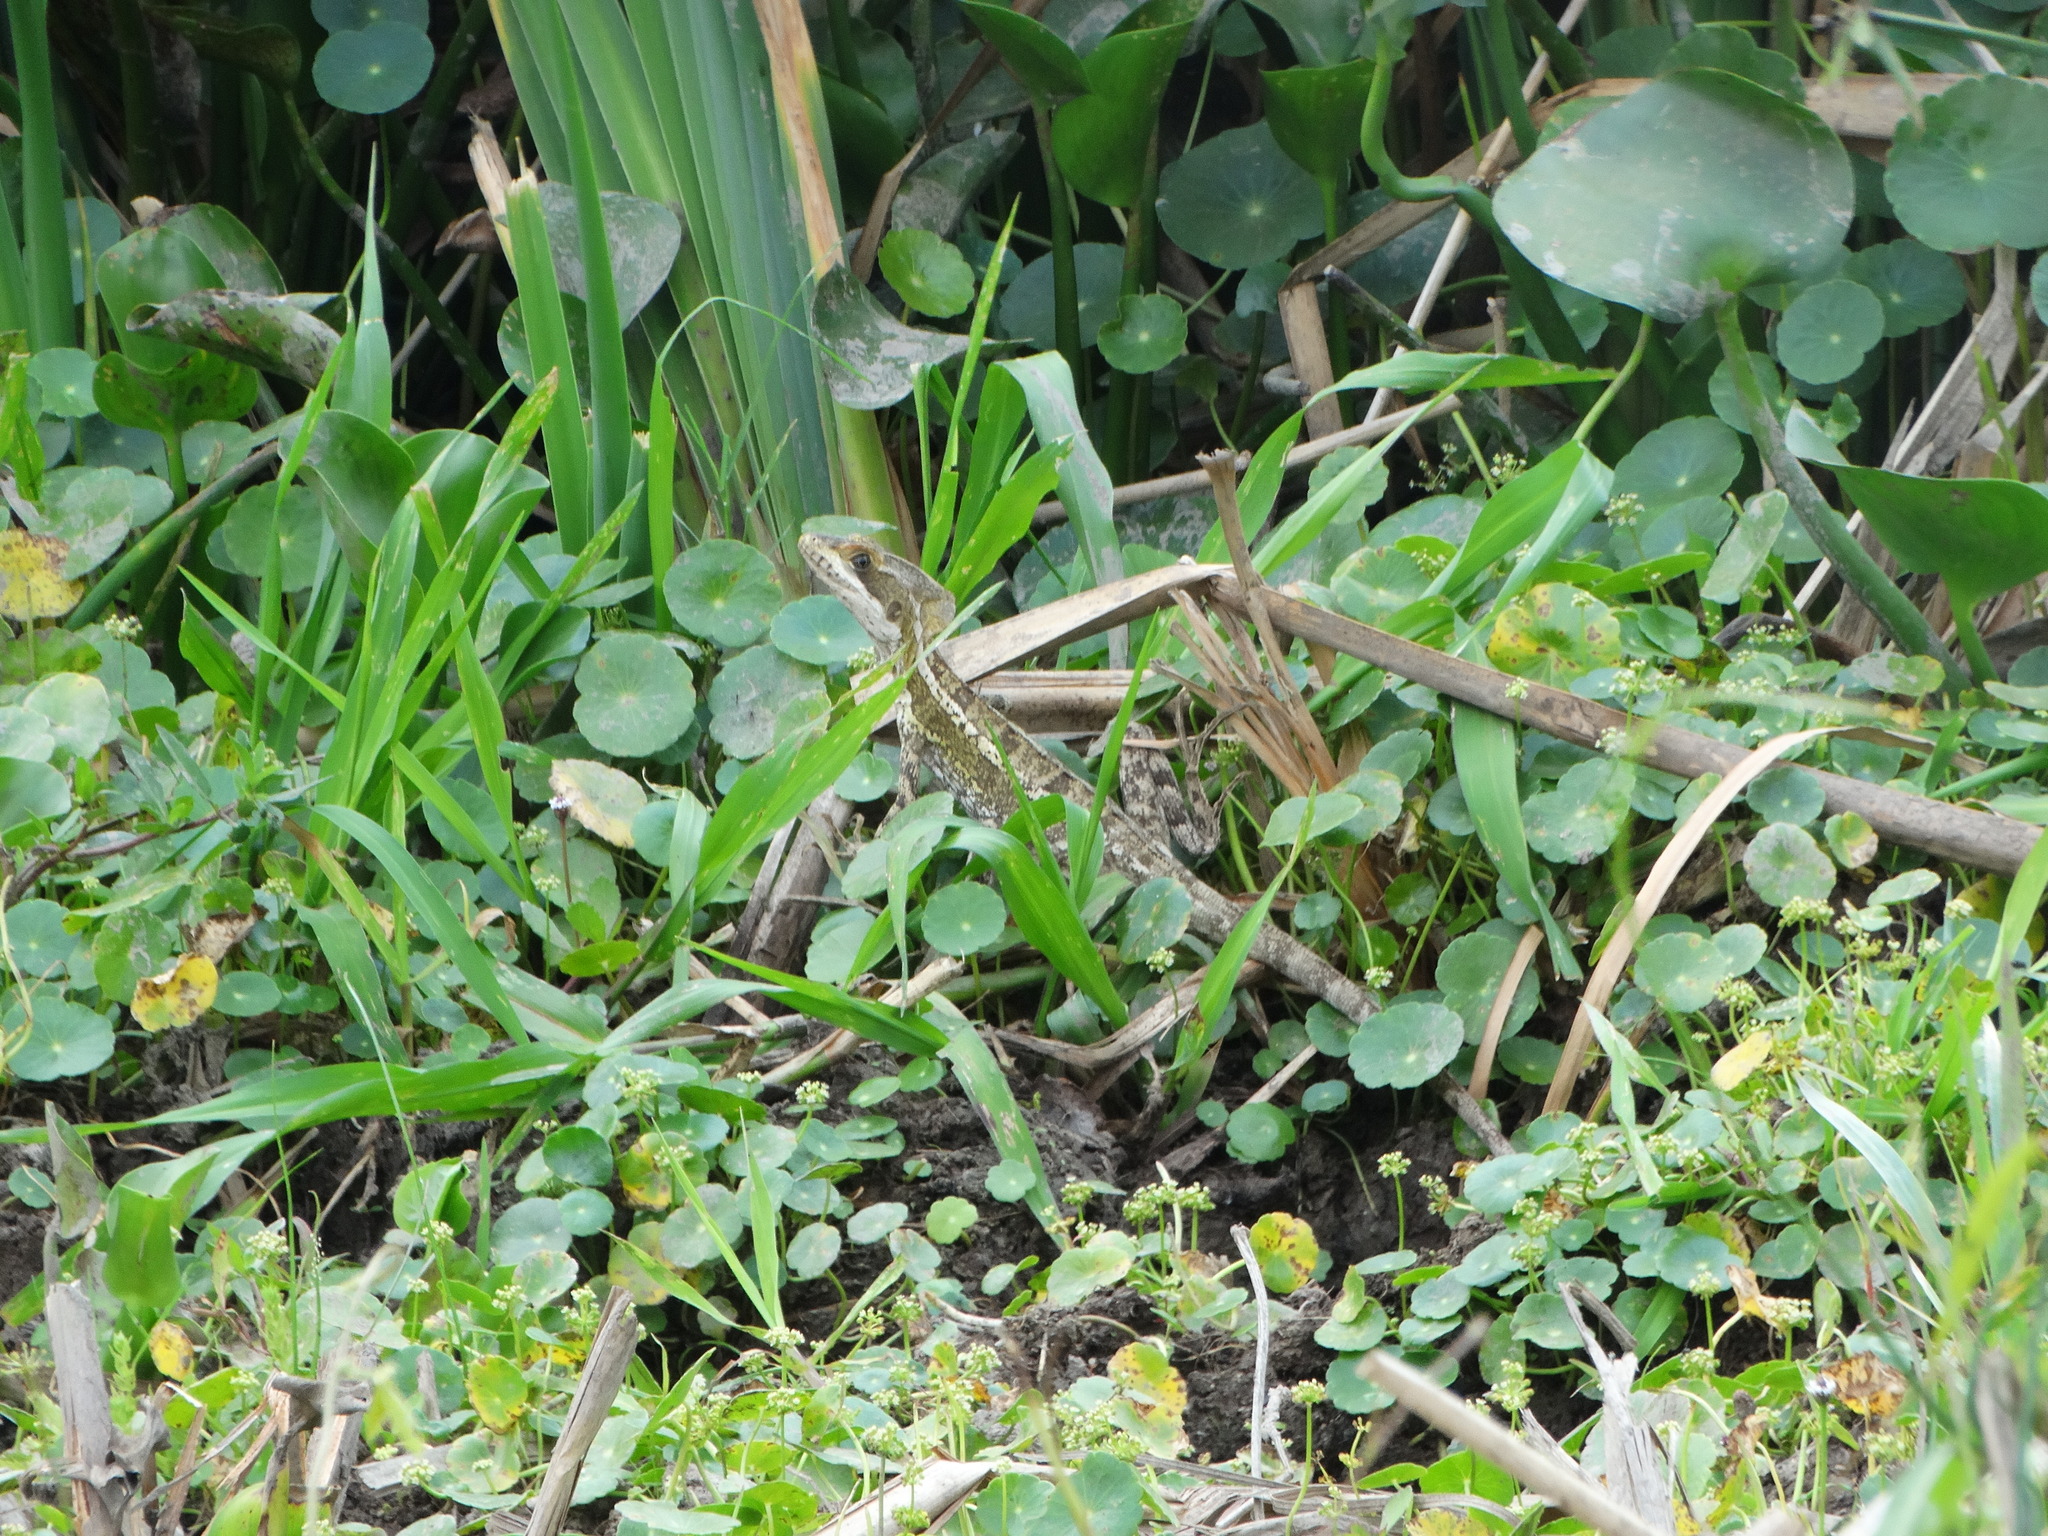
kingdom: Animalia
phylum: Chordata
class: Squamata
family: Corytophanidae
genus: Basiliscus
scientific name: Basiliscus vittatus
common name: Brown basilisk
